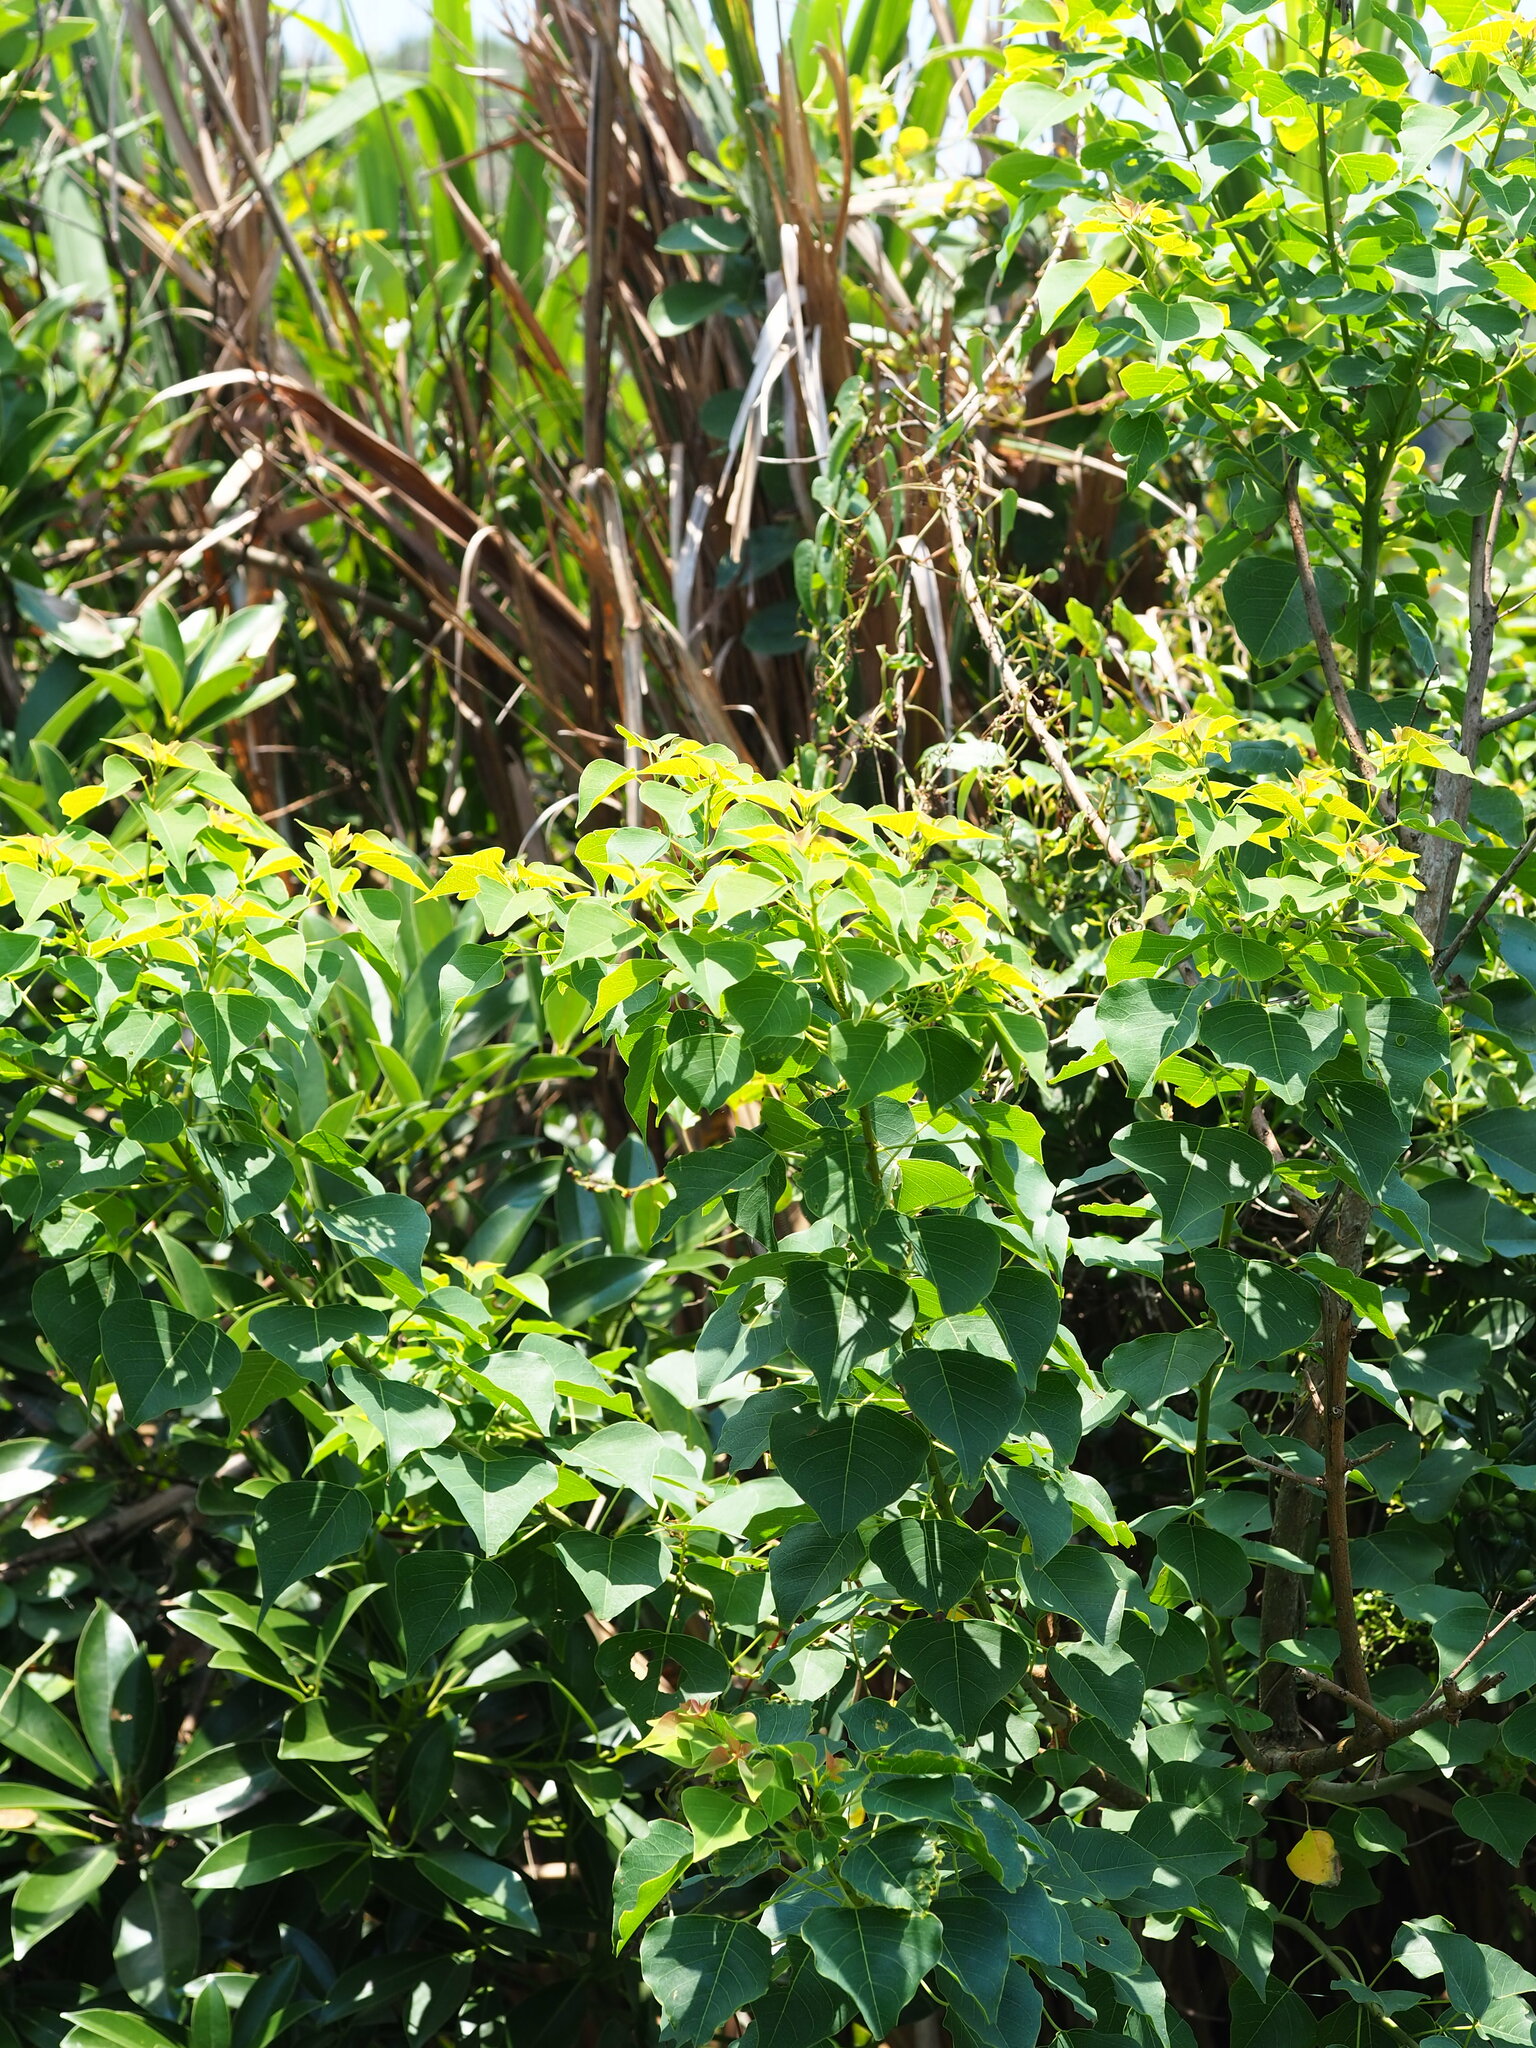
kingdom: Plantae
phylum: Tracheophyta
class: Magnoliopsida
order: Malpighiales
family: Euphorbiaceae
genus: Triadica
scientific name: Triadica sebifera
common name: Chinese tallow
